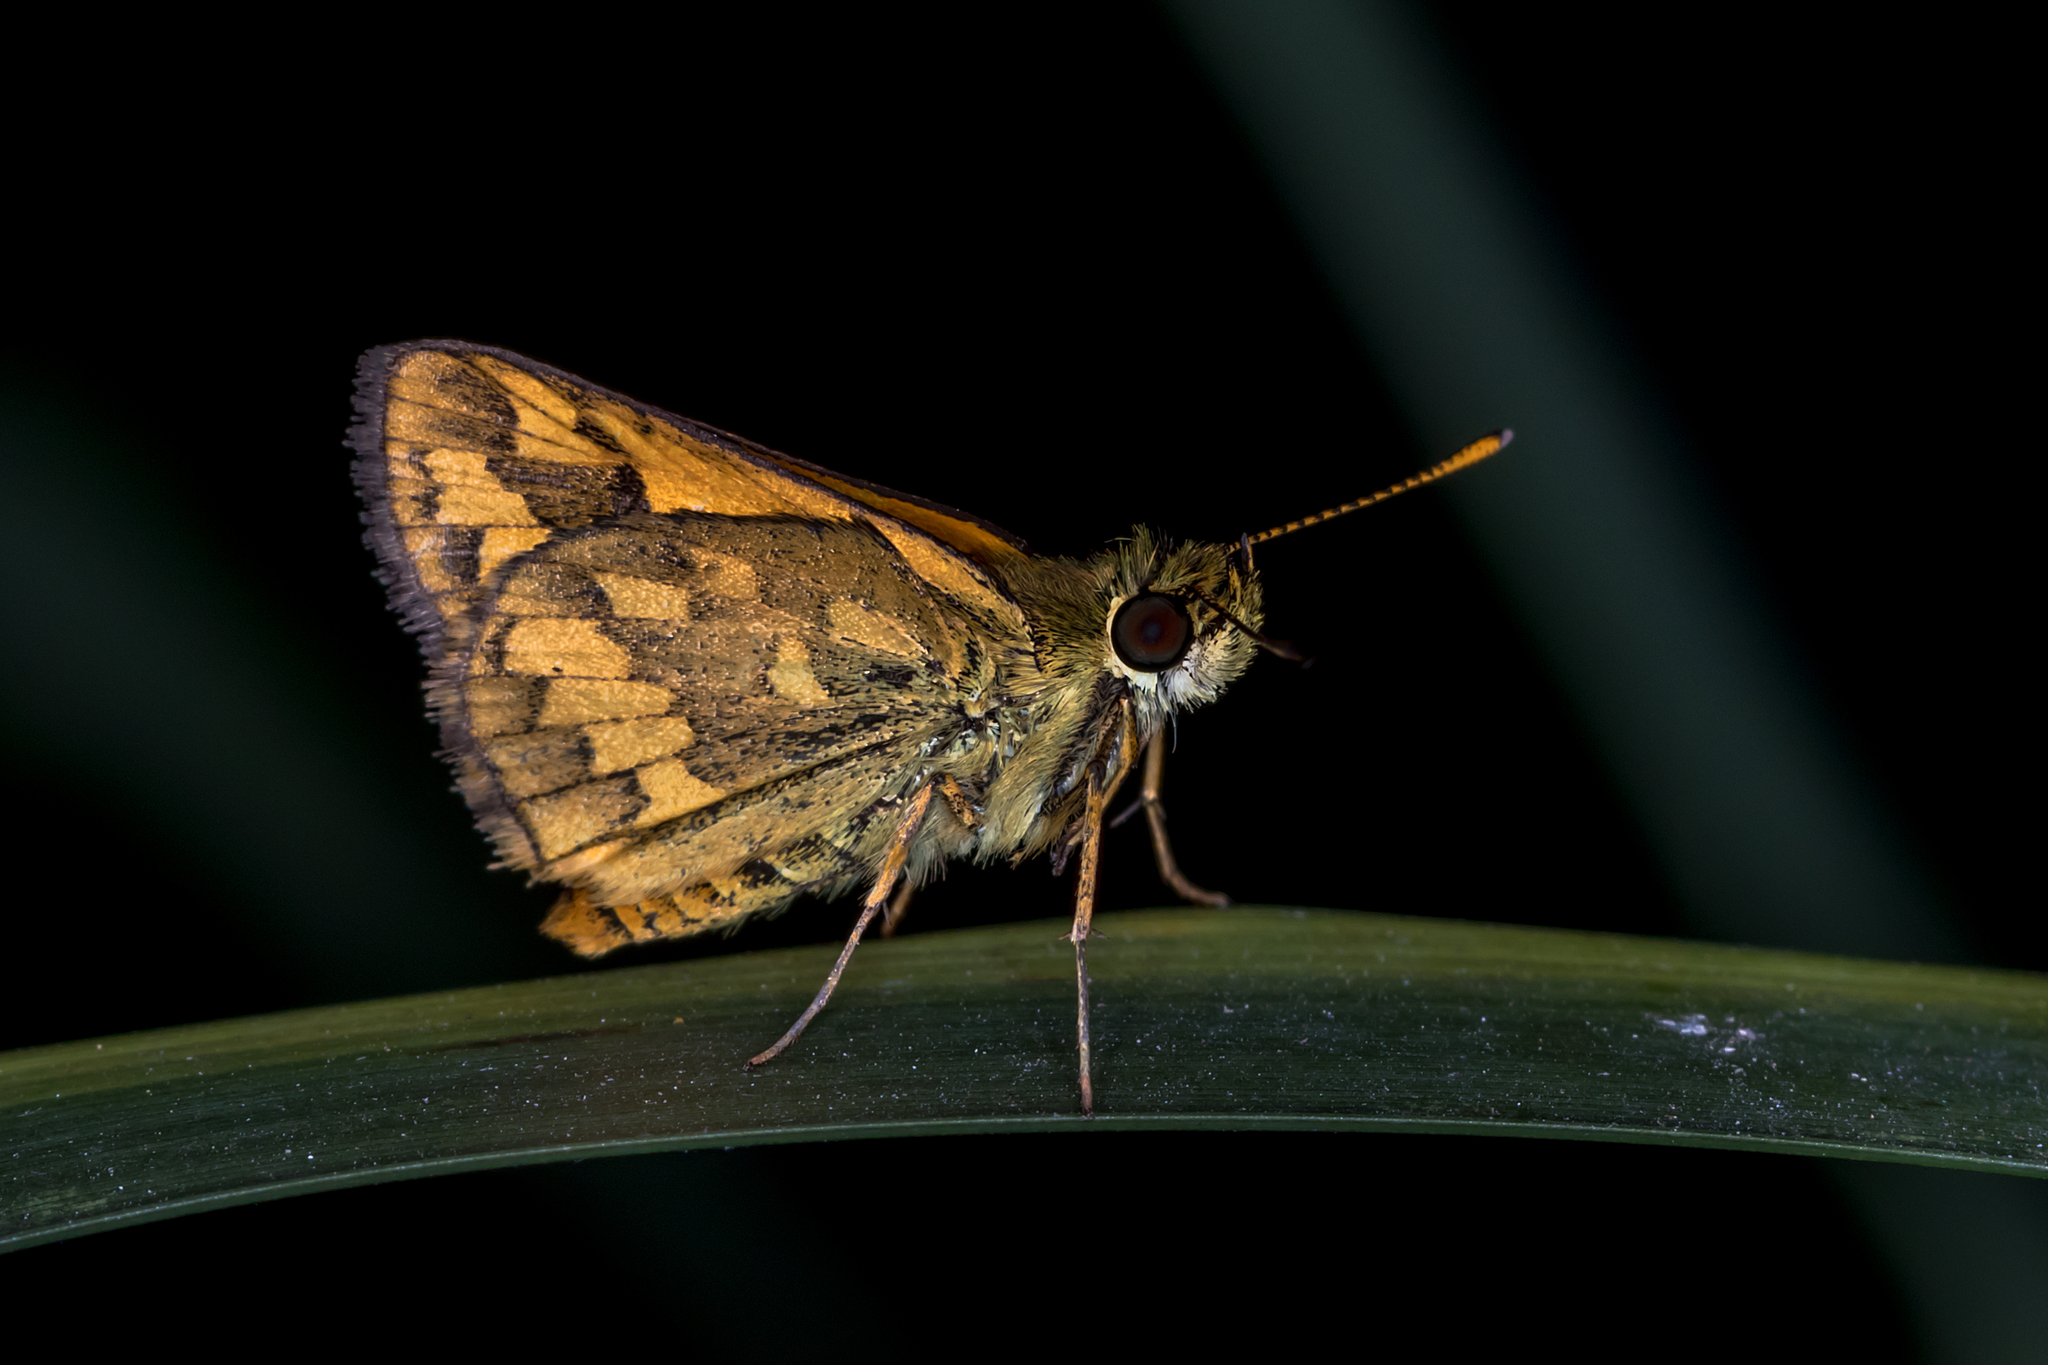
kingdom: Animalia
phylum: Arthropoda
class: Insecta
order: Lepidoptera
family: Hesperiidae
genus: Suniana
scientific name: Suniana sunias
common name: Wide-brand grass-dart
